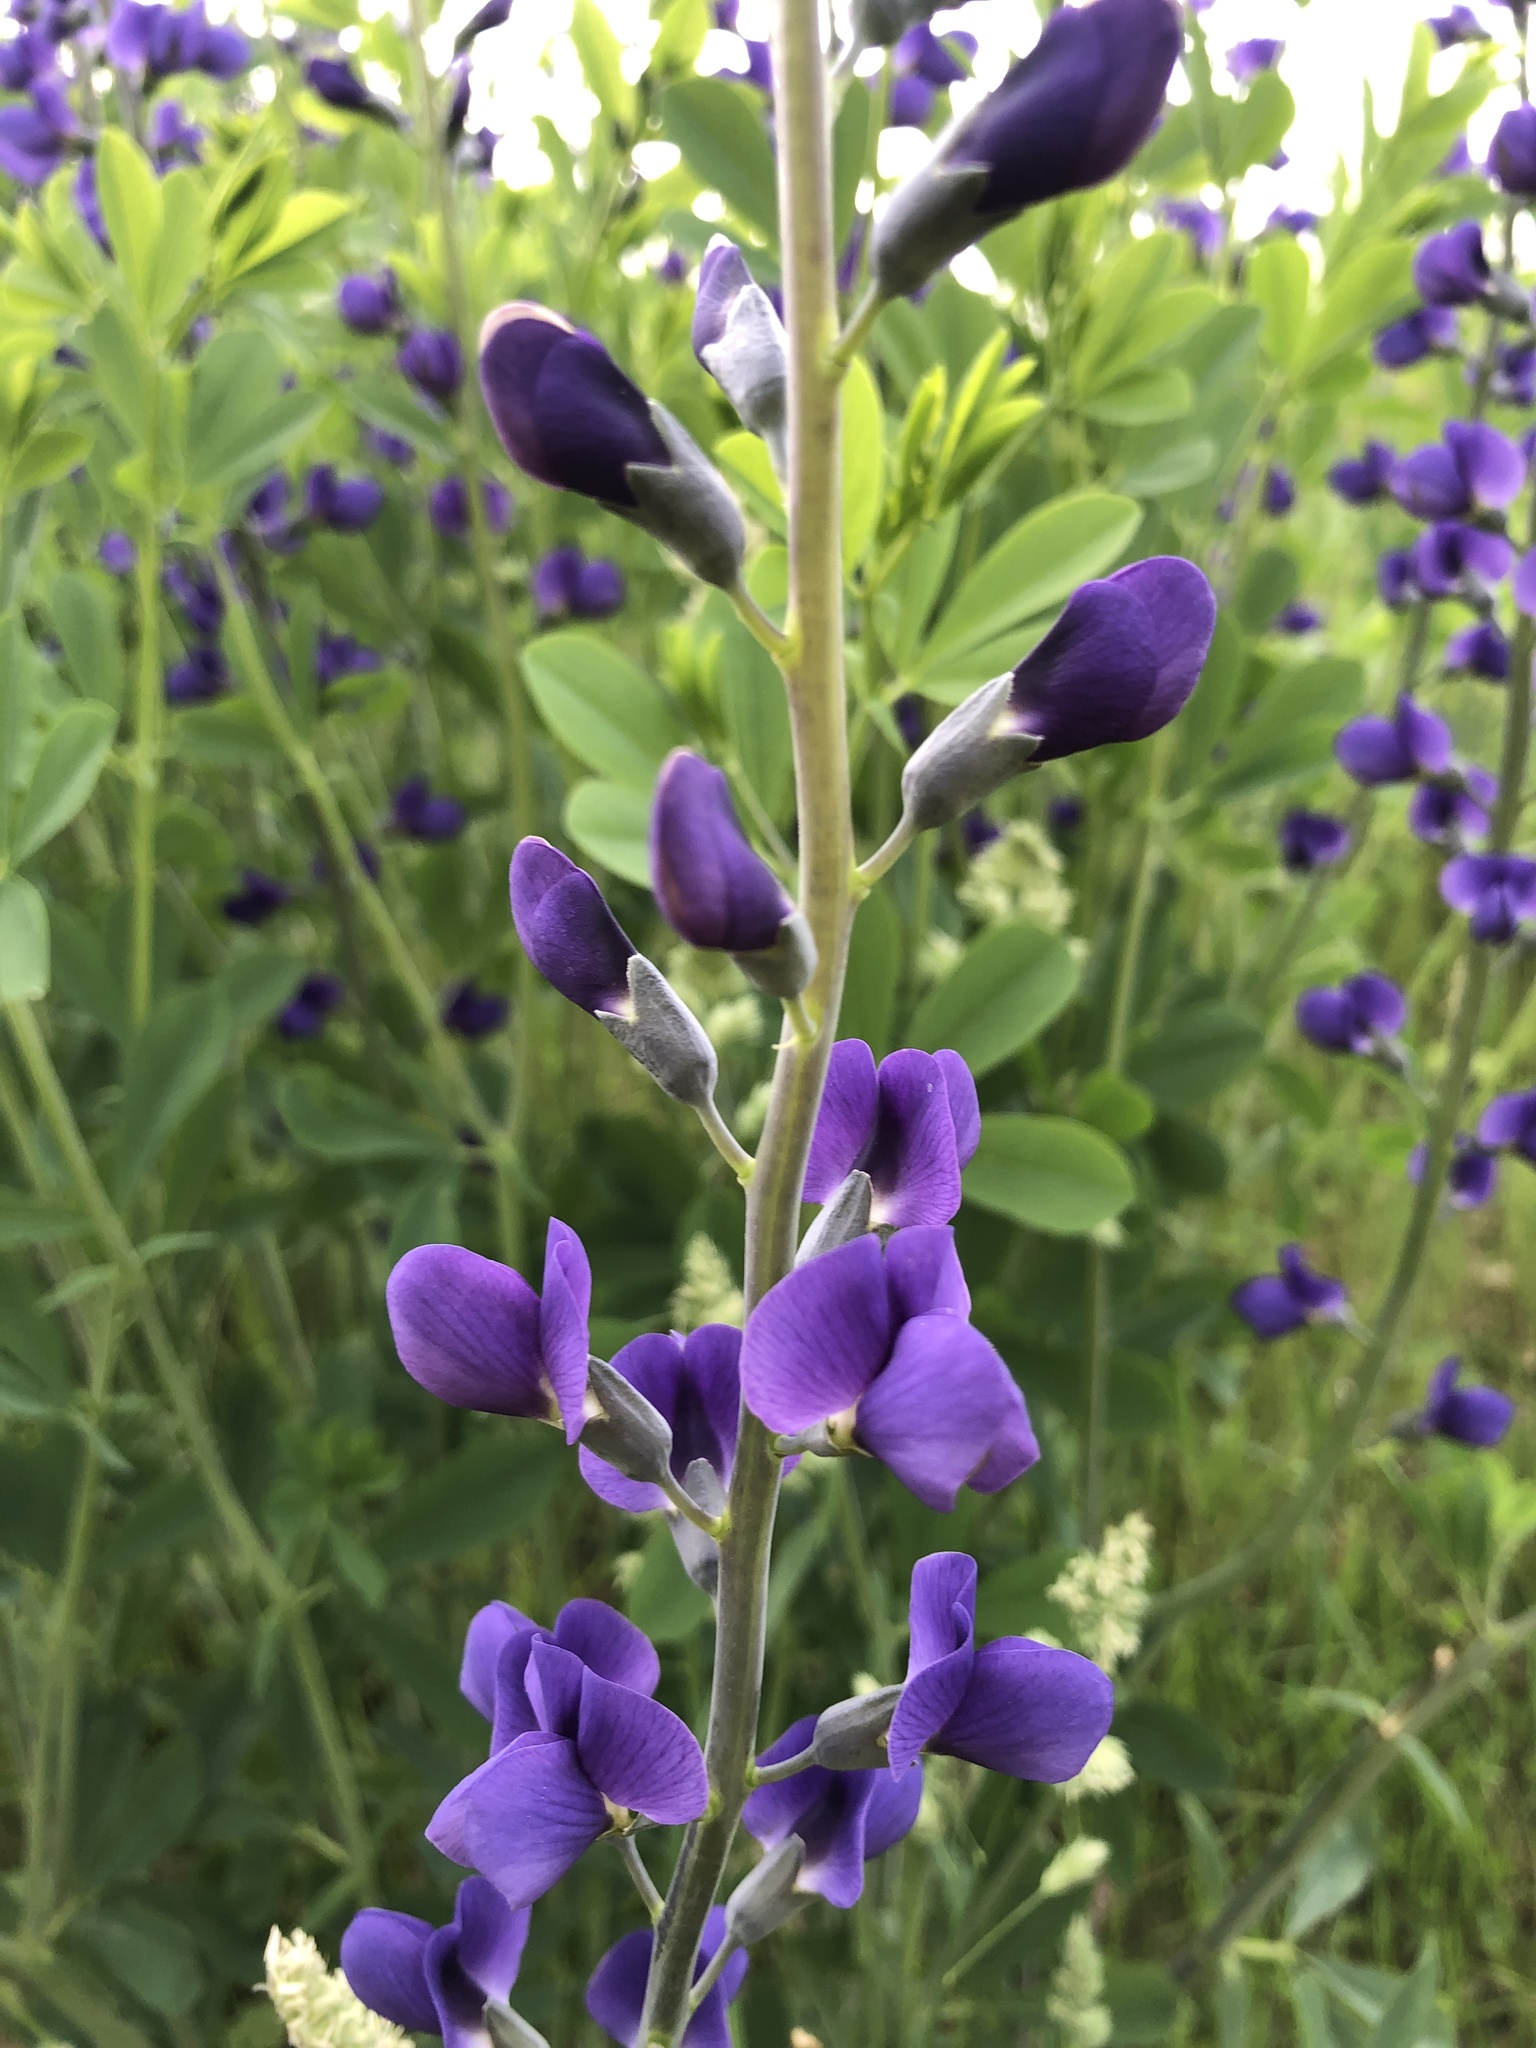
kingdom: Plantae
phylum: Tracheophyta
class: Magnoliopsida
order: Fabales
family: Fabaceae
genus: Baptisia
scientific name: Baptisia australis
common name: Blue false indigo
